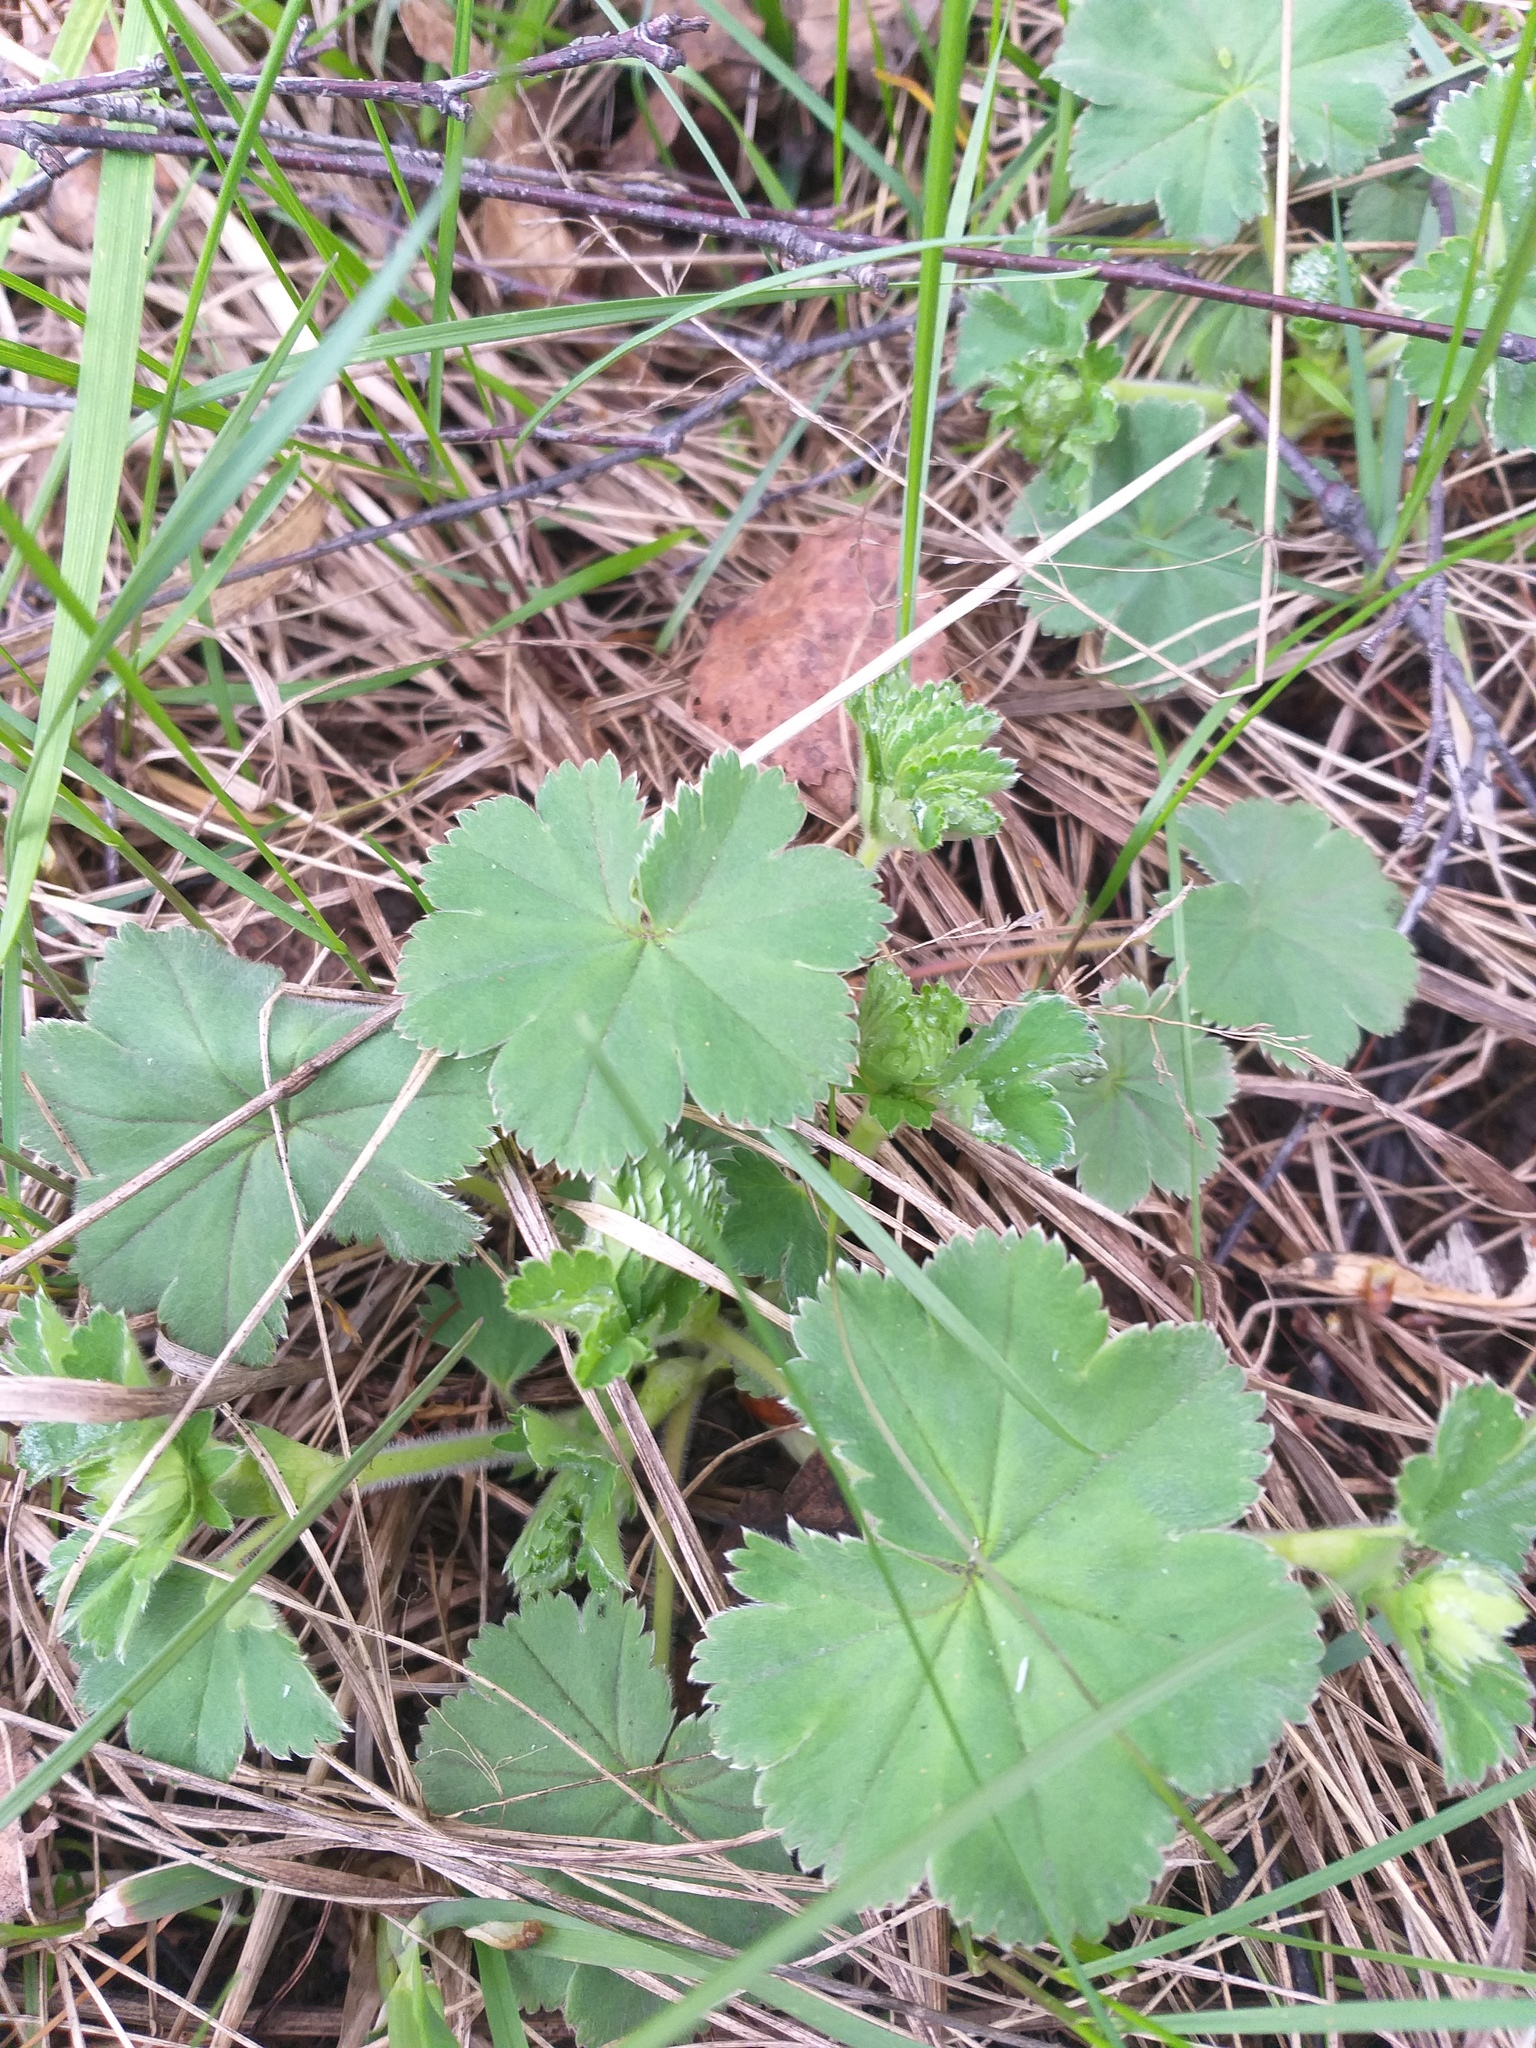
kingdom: Plantae
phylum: Tracheophyta
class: Magnoliopsida
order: Rosales
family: Rosaceae
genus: Alchemilla
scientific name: Alchemilla
